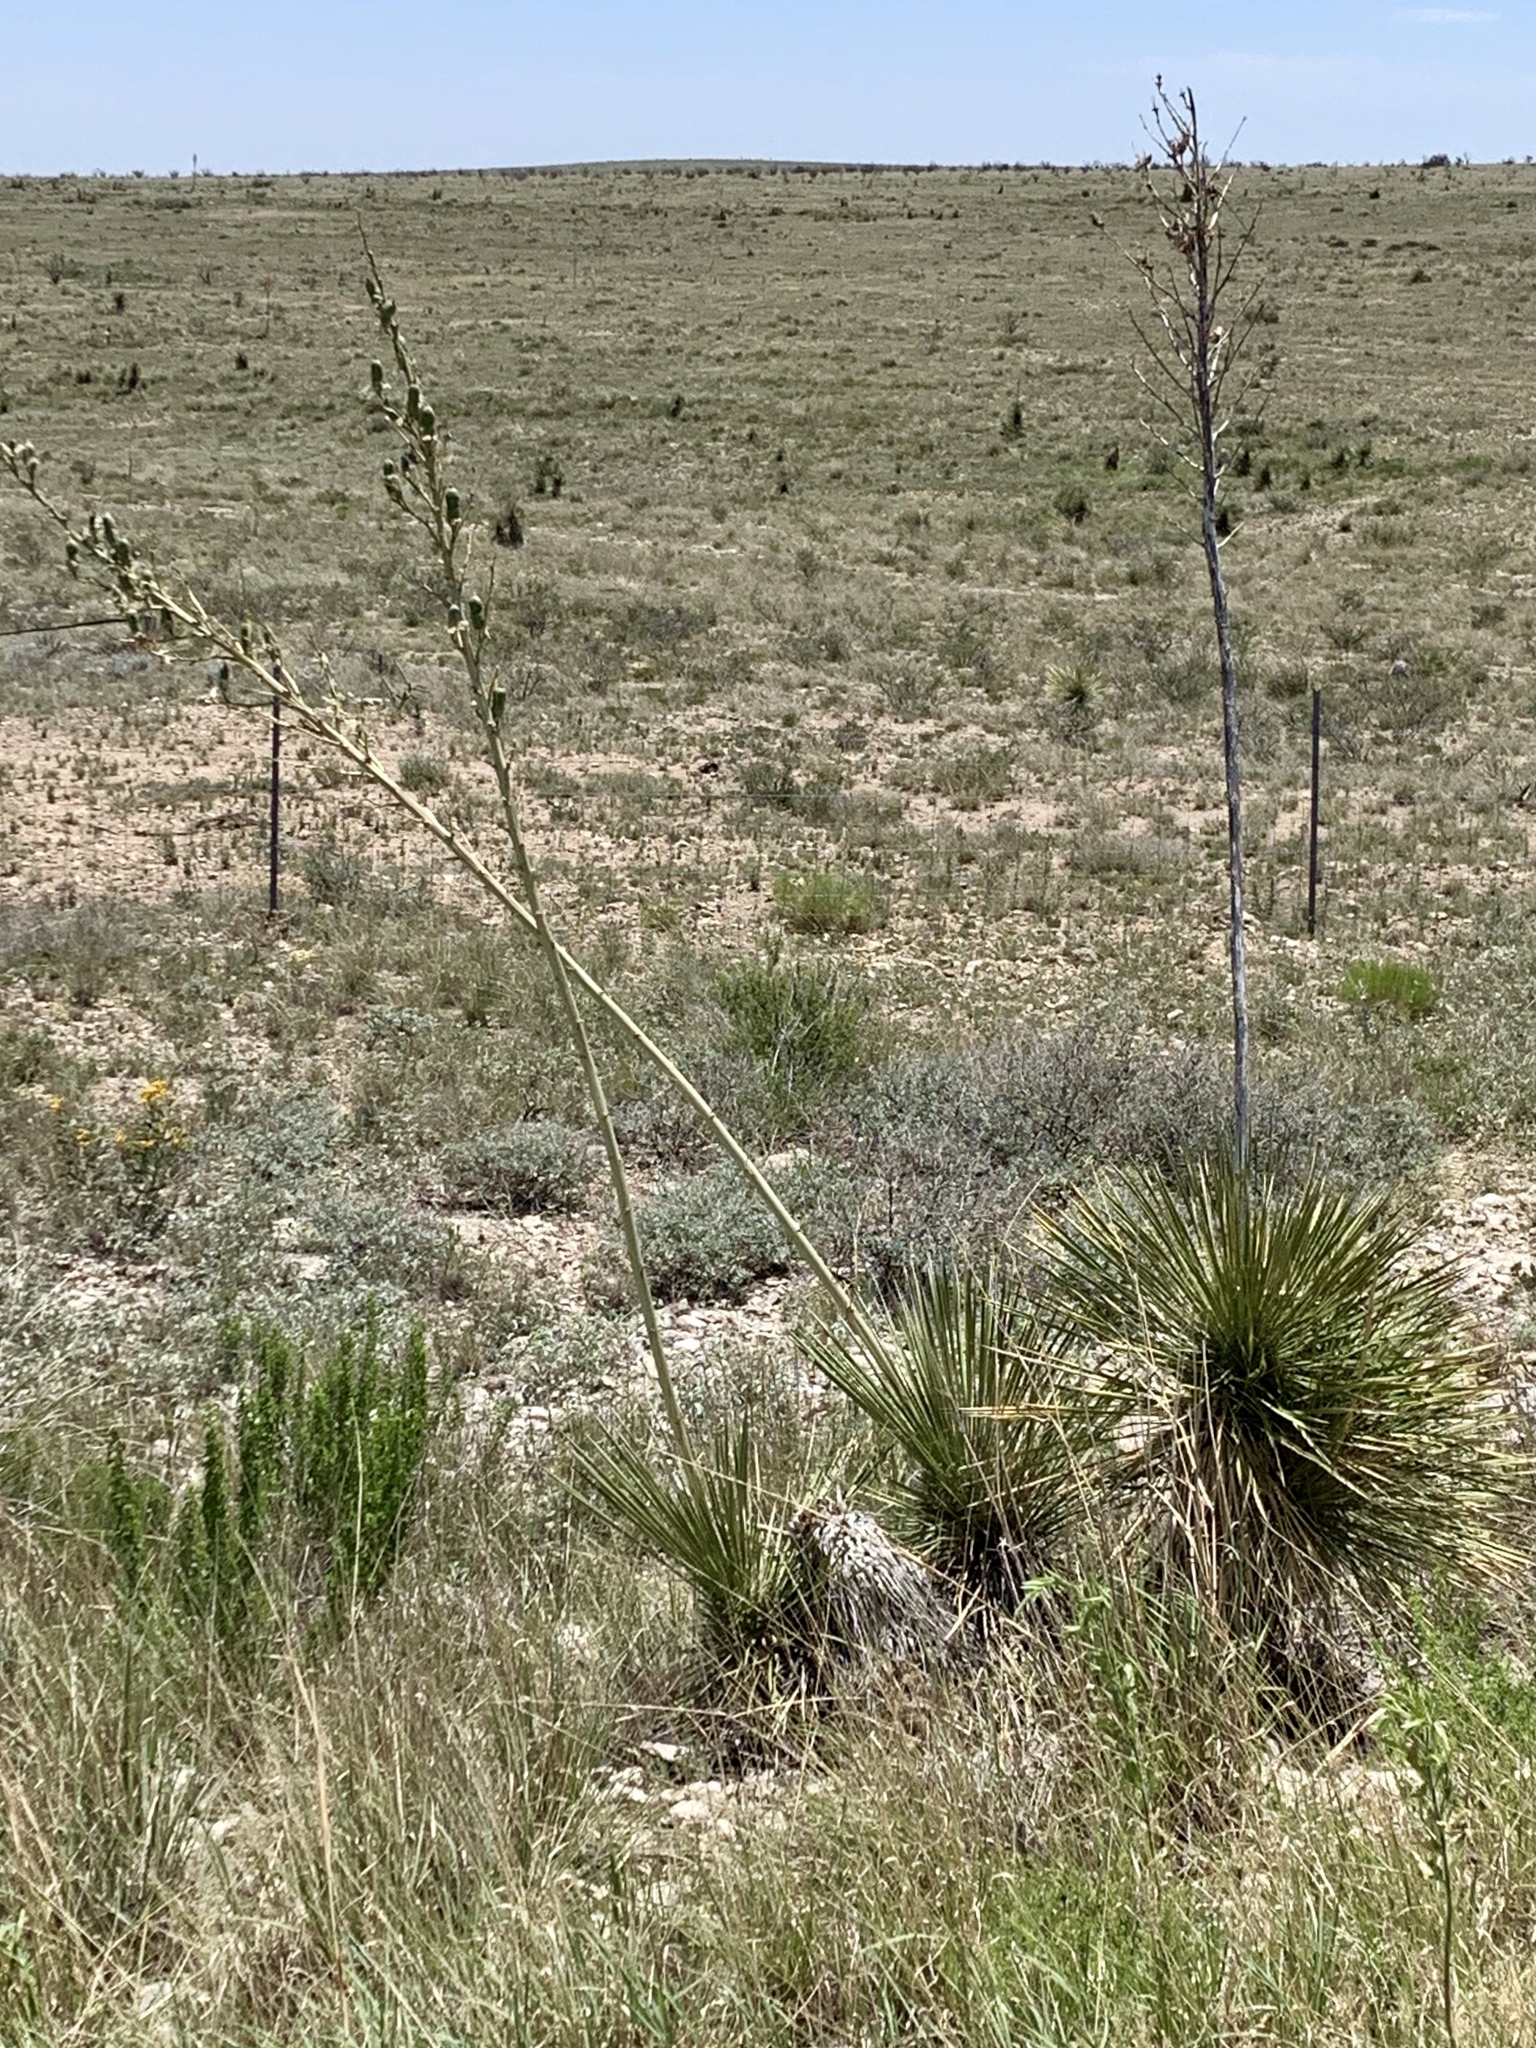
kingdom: Plantae
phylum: Tracheophyta
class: Liliopsida
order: Asparagales
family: Asparagaceae
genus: Yucca
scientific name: Yucca elata
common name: Palmella
